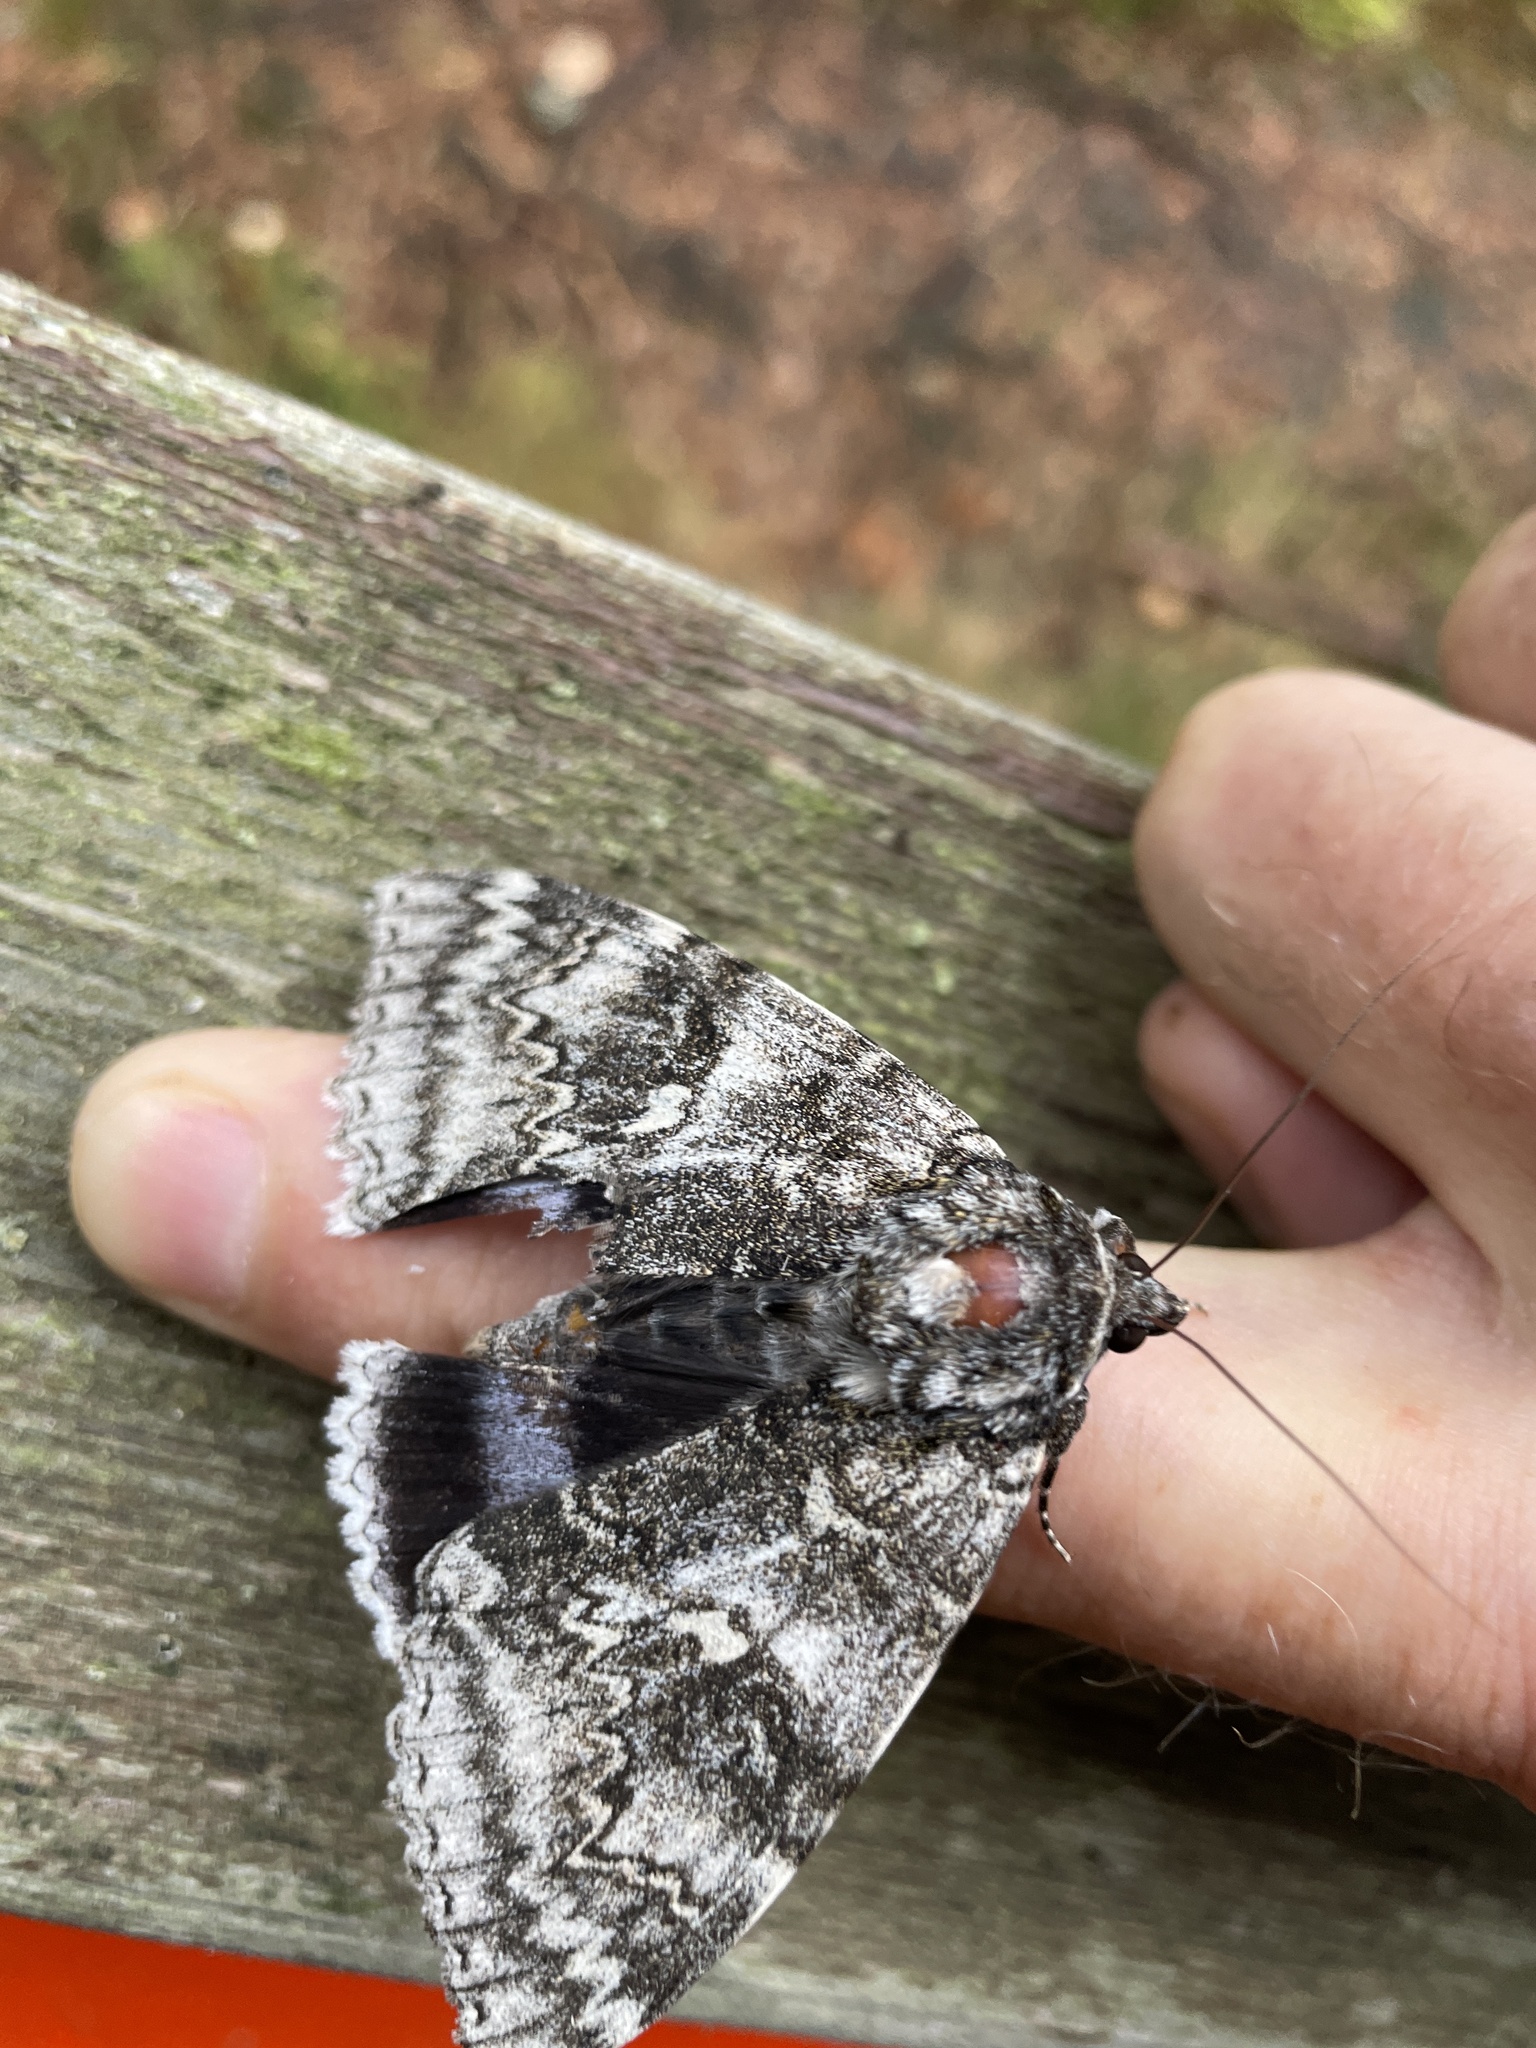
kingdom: Animalia
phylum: Arthropoda
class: Insecta
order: Lepidoptera
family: Erebidae
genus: Catocala
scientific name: Catocala fraxini
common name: Clifden nonpareil
